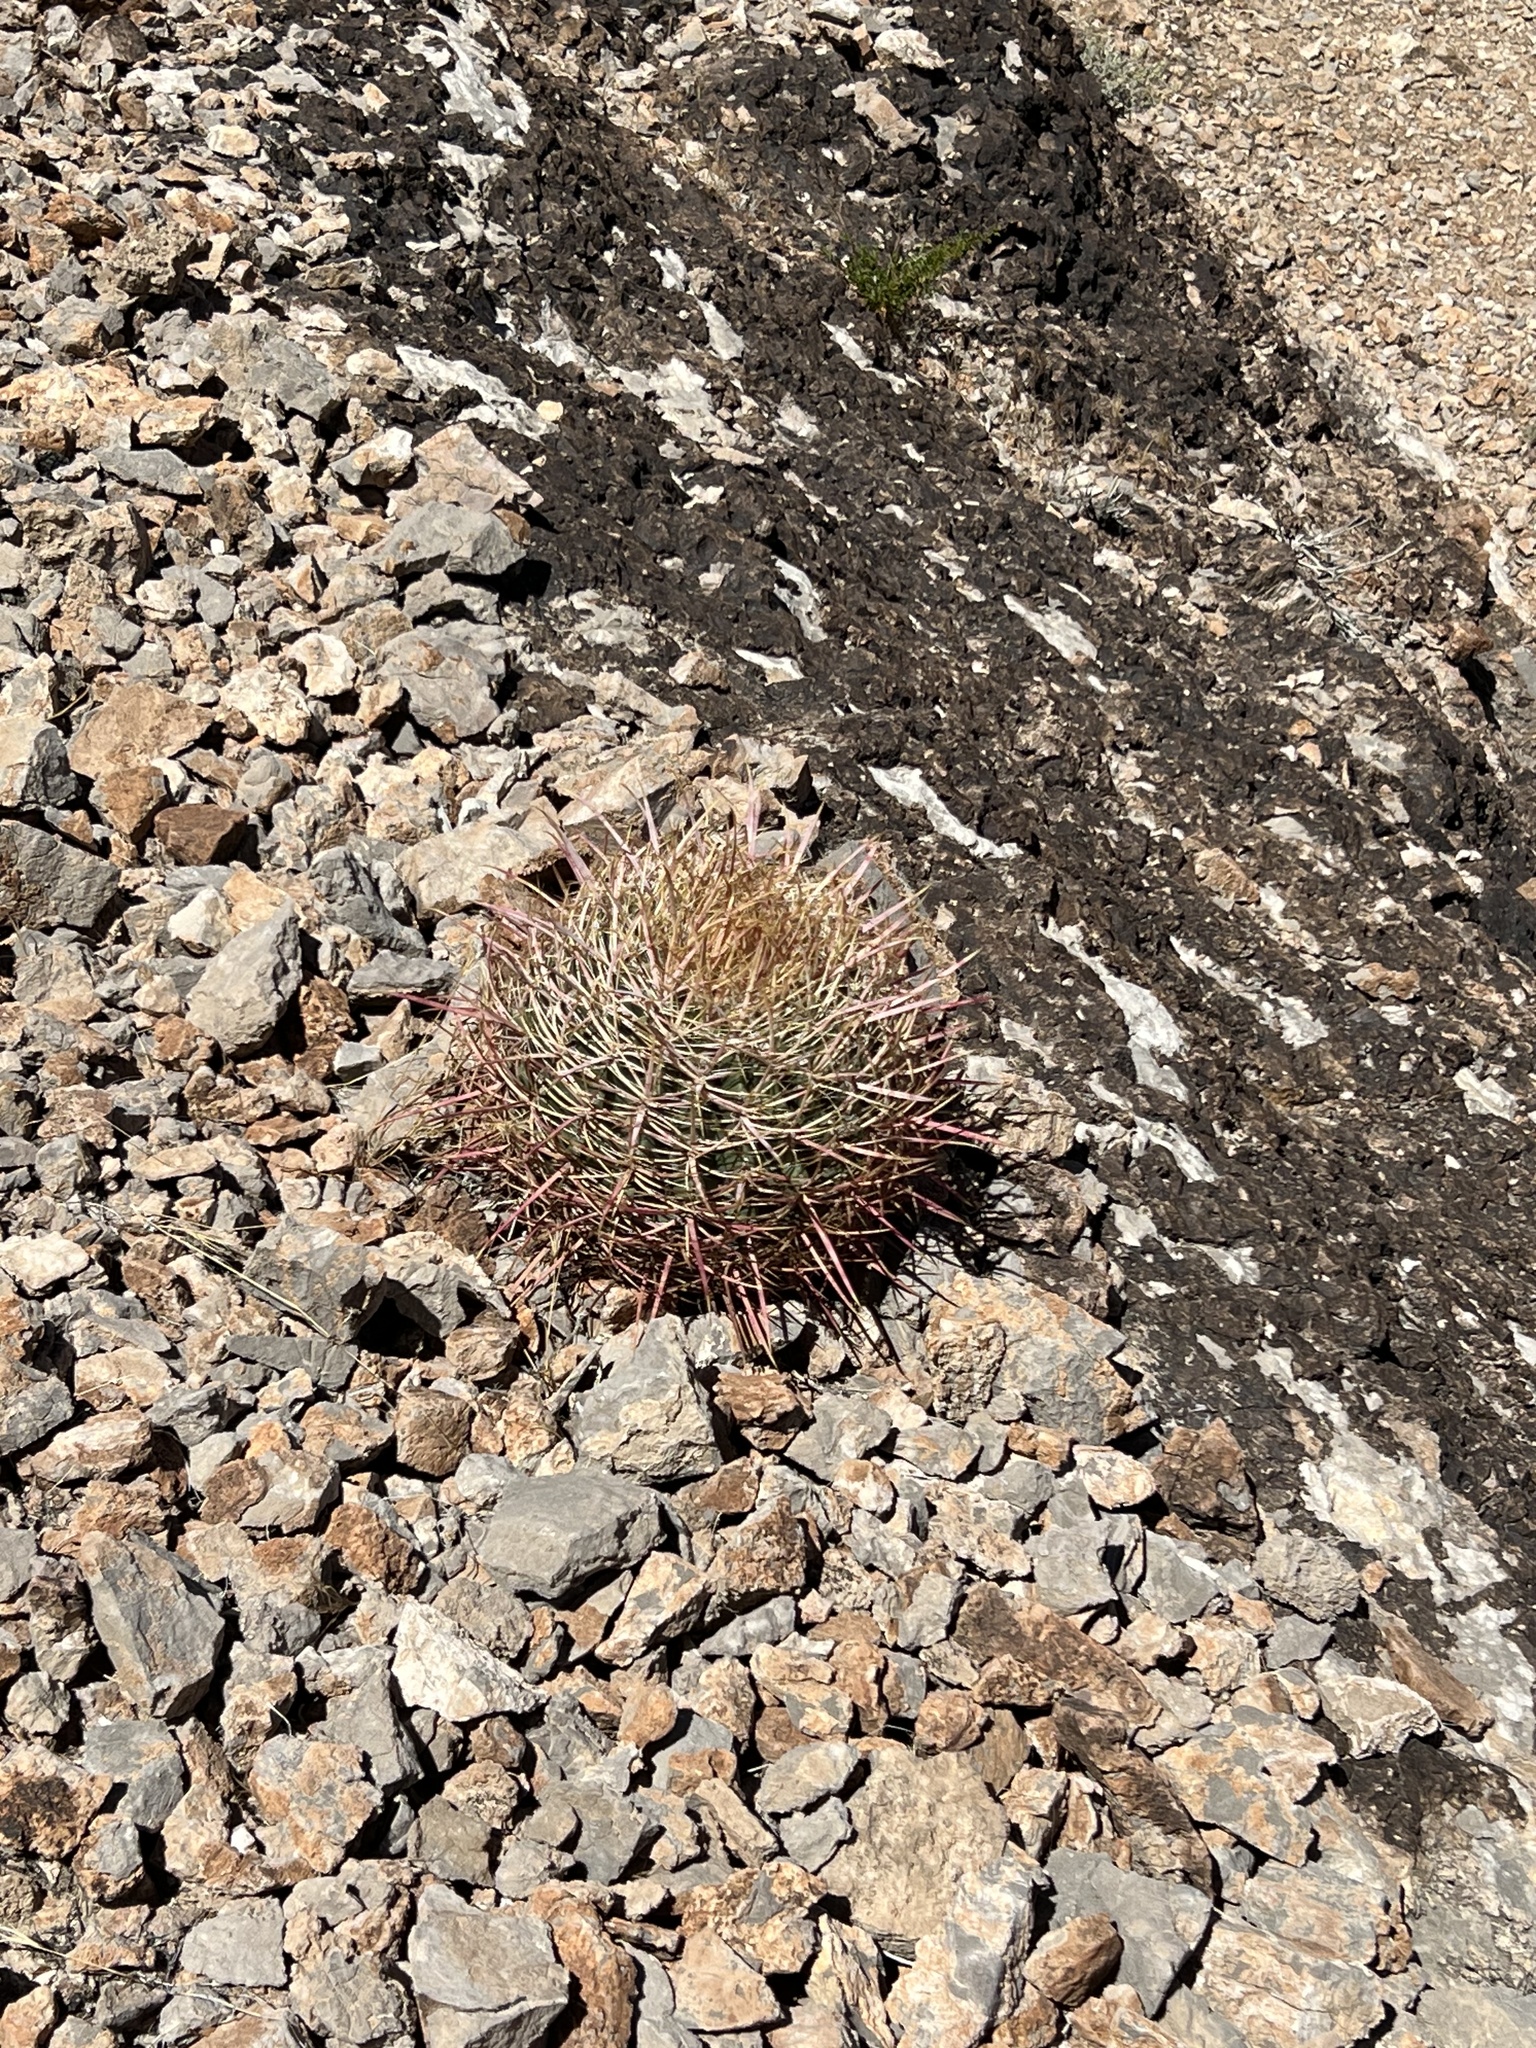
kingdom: Plantae
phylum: Tracheophyta
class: Magnoliopsida
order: Caryophyllales
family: Cactaceae
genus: Ferocactus
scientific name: Ferocactus cylindraceus
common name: California barrel cactus
